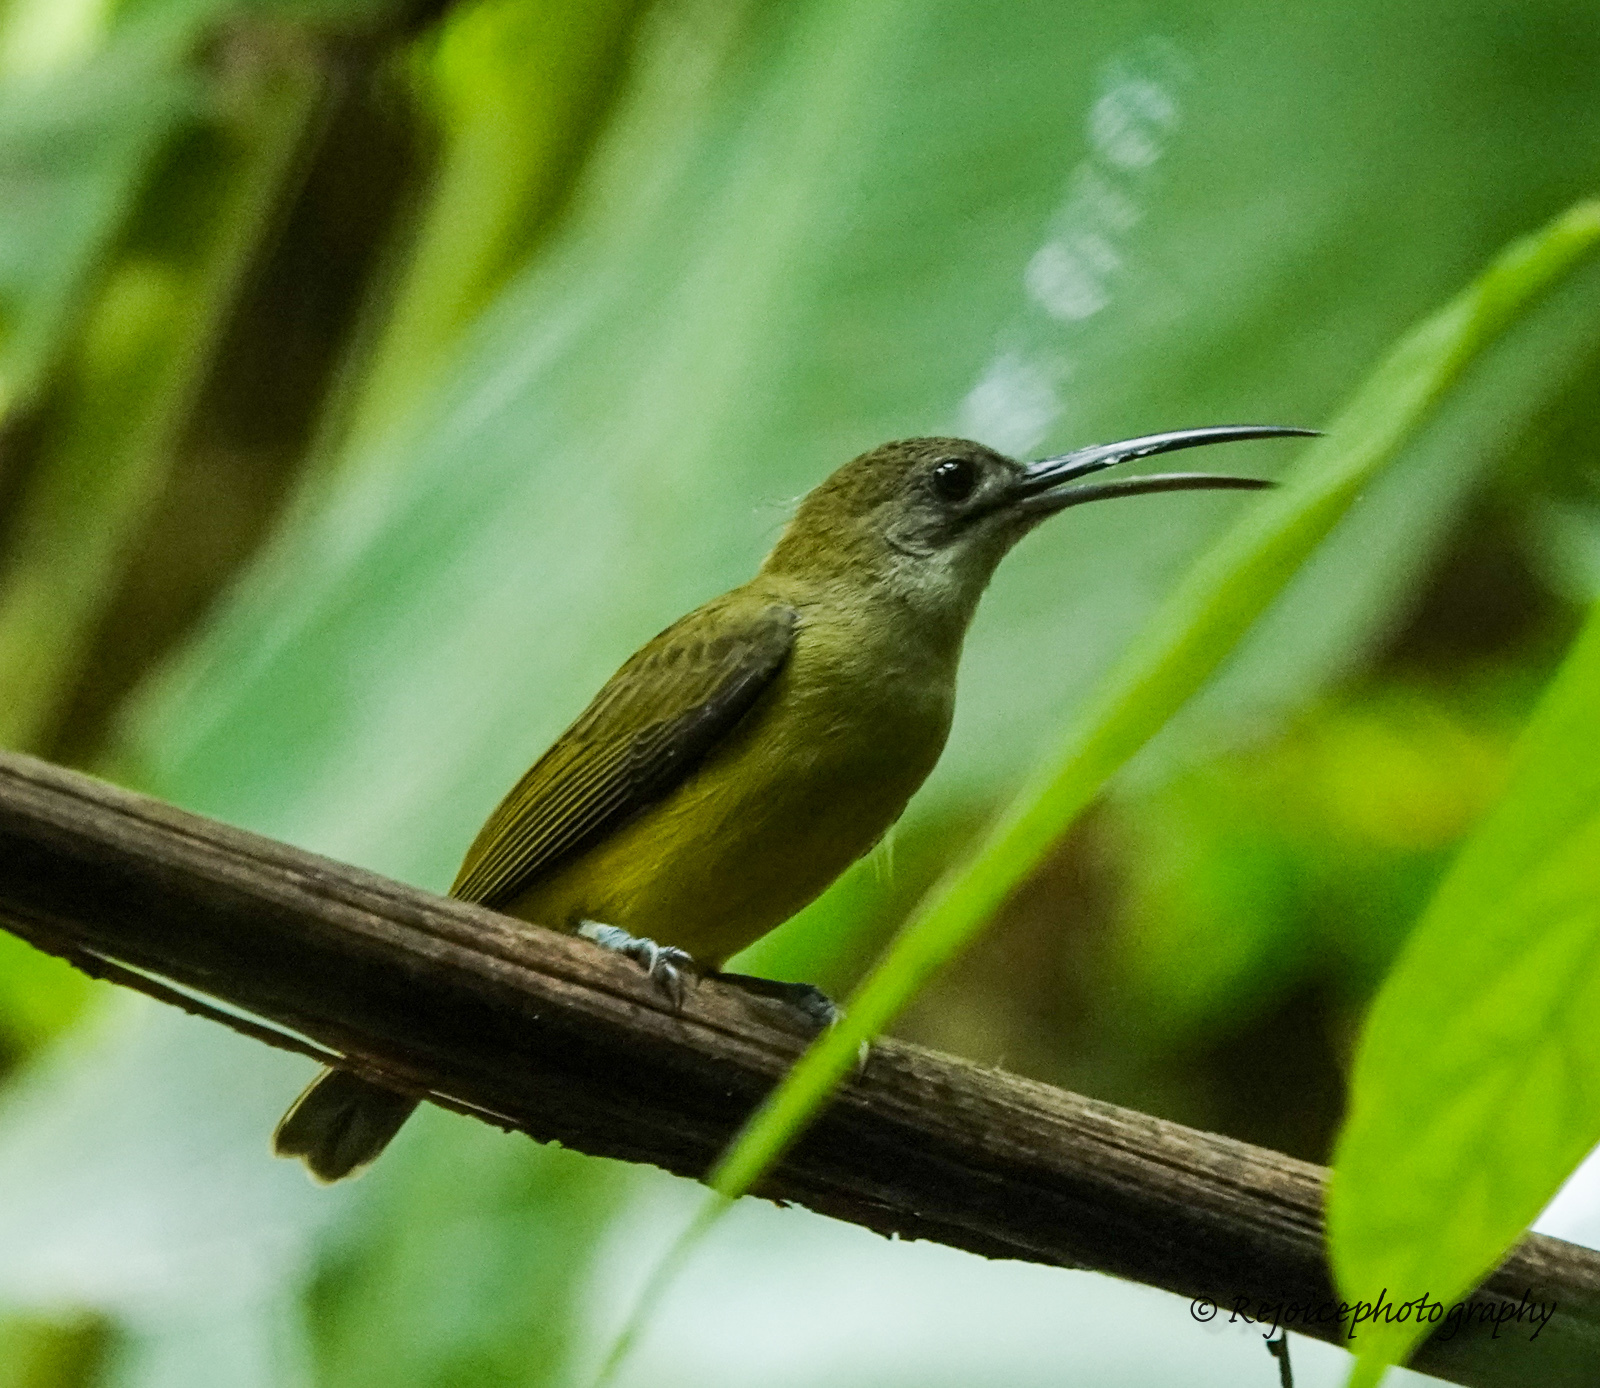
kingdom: Animalia
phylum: Chordata
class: Aves
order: Passeriformes
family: Nectariniidae
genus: Arachnothera
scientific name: Arachnothera longirostra
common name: Little spiderhunter
